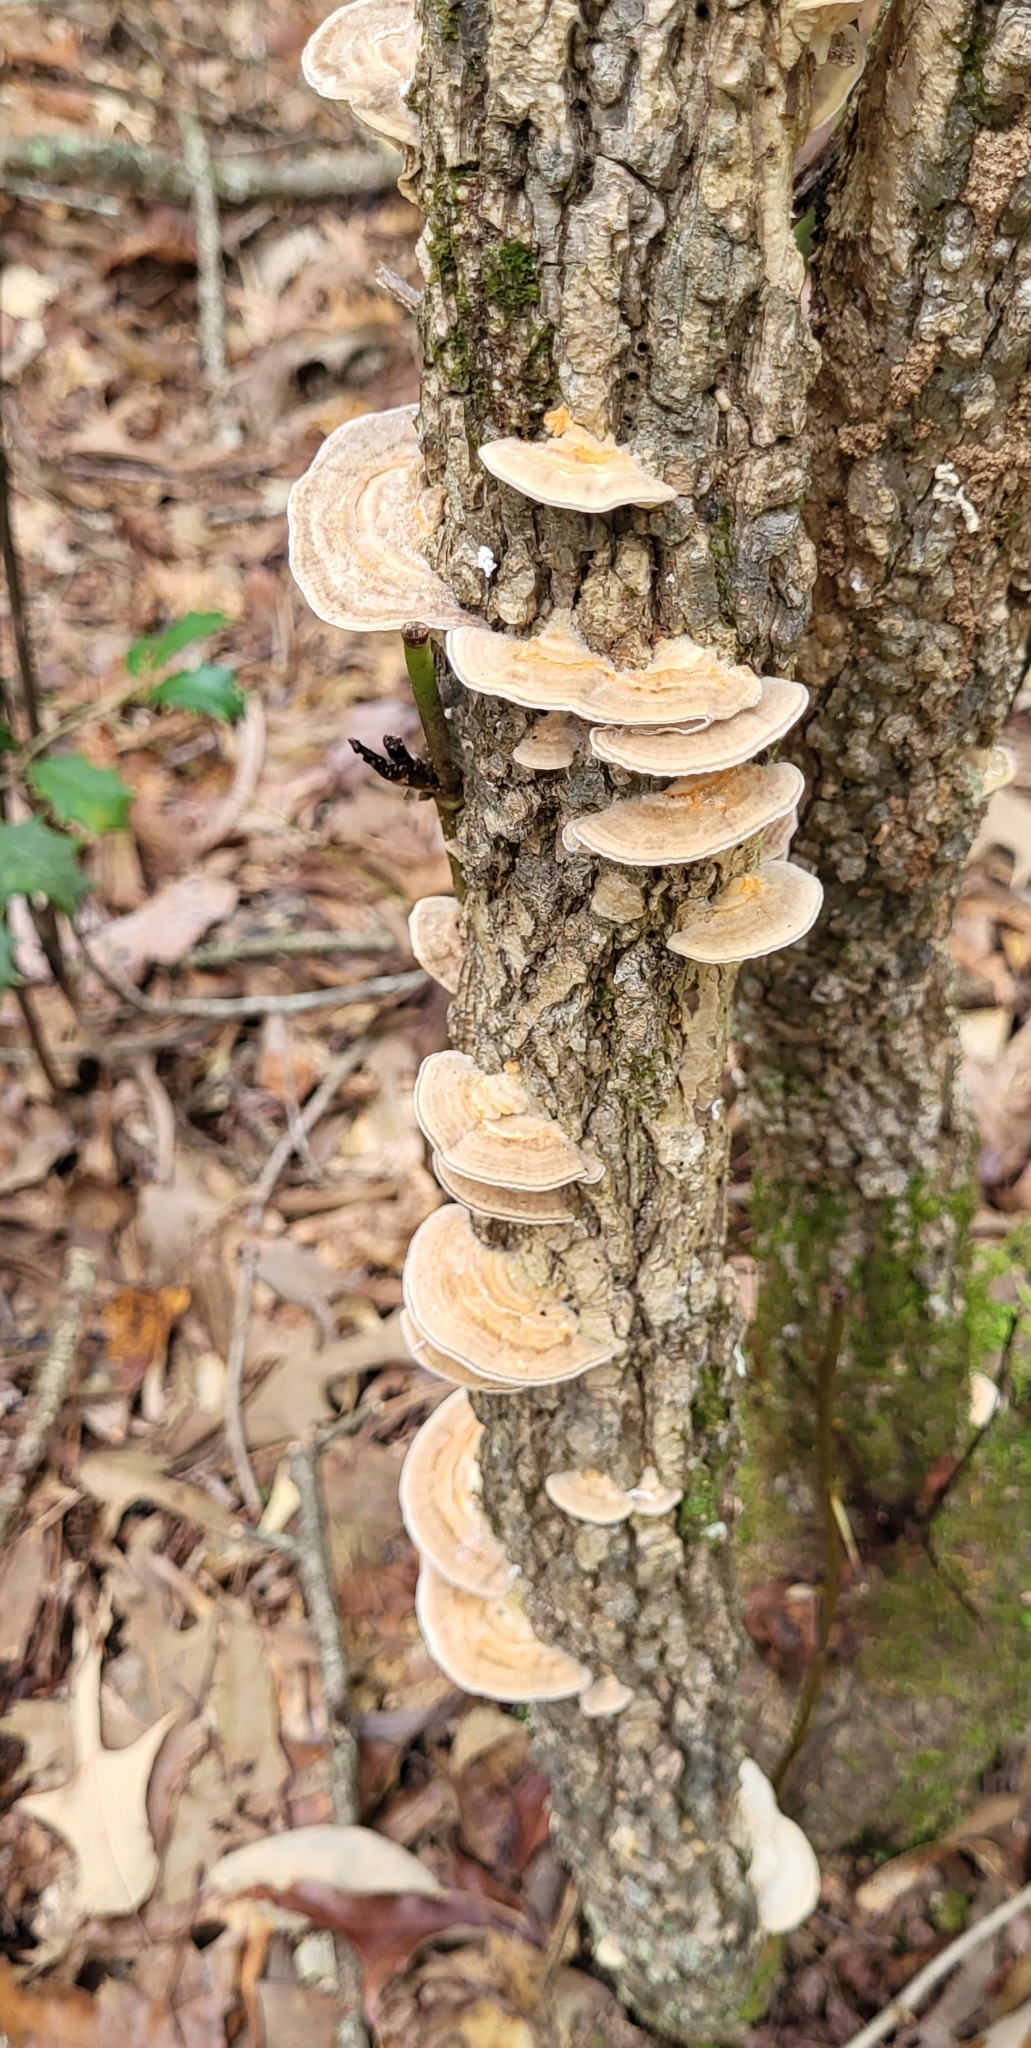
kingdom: Fungi
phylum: Basidiomycota
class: Agaricomycetes
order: Polyporales
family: Polyporaceae
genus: Lenzites
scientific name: Lenzites betulinus
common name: Birch mazegill
